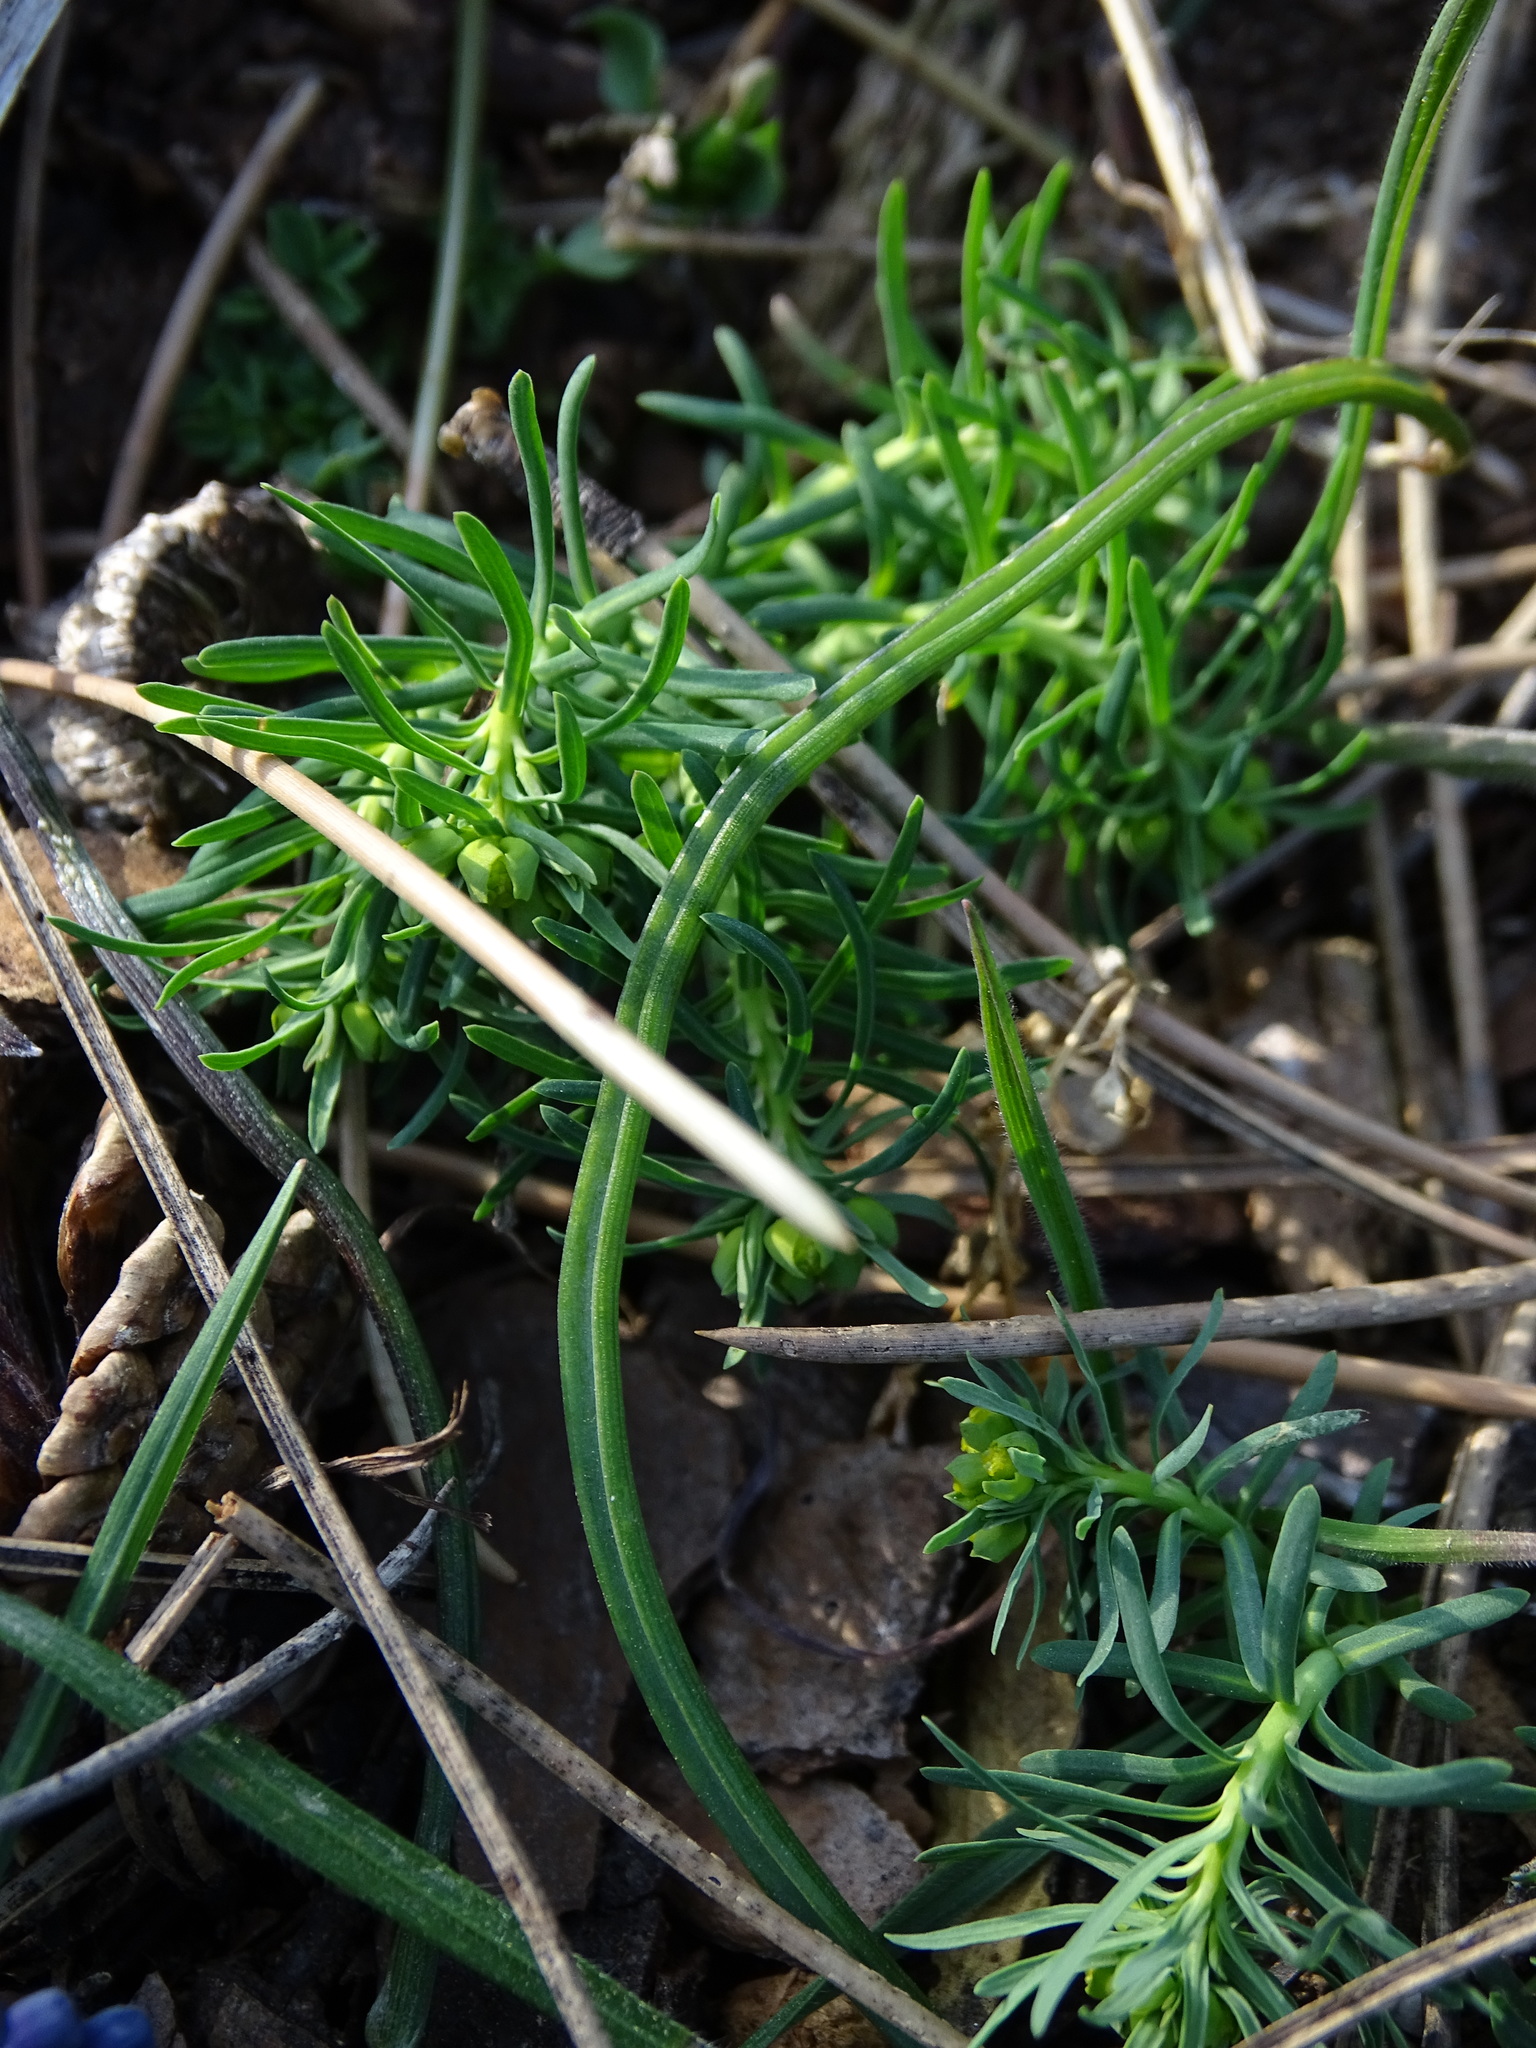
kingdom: Plantae
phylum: Tracheophyta
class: Liliopsida
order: Asparagales
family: Asparagaceae
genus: Muscari
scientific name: Muscari neglectum
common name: Grape-hyacinth
